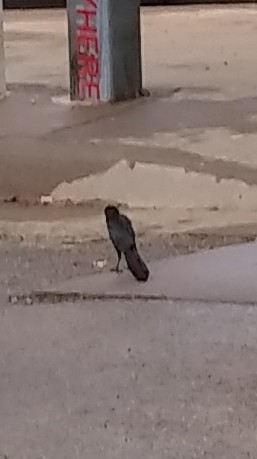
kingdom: Animalia
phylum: Chordata
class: Aves
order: Passeriformes
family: Icteridae
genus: Quiscalus
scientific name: Quiscalus mexicanus
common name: Great-tailed grackle
